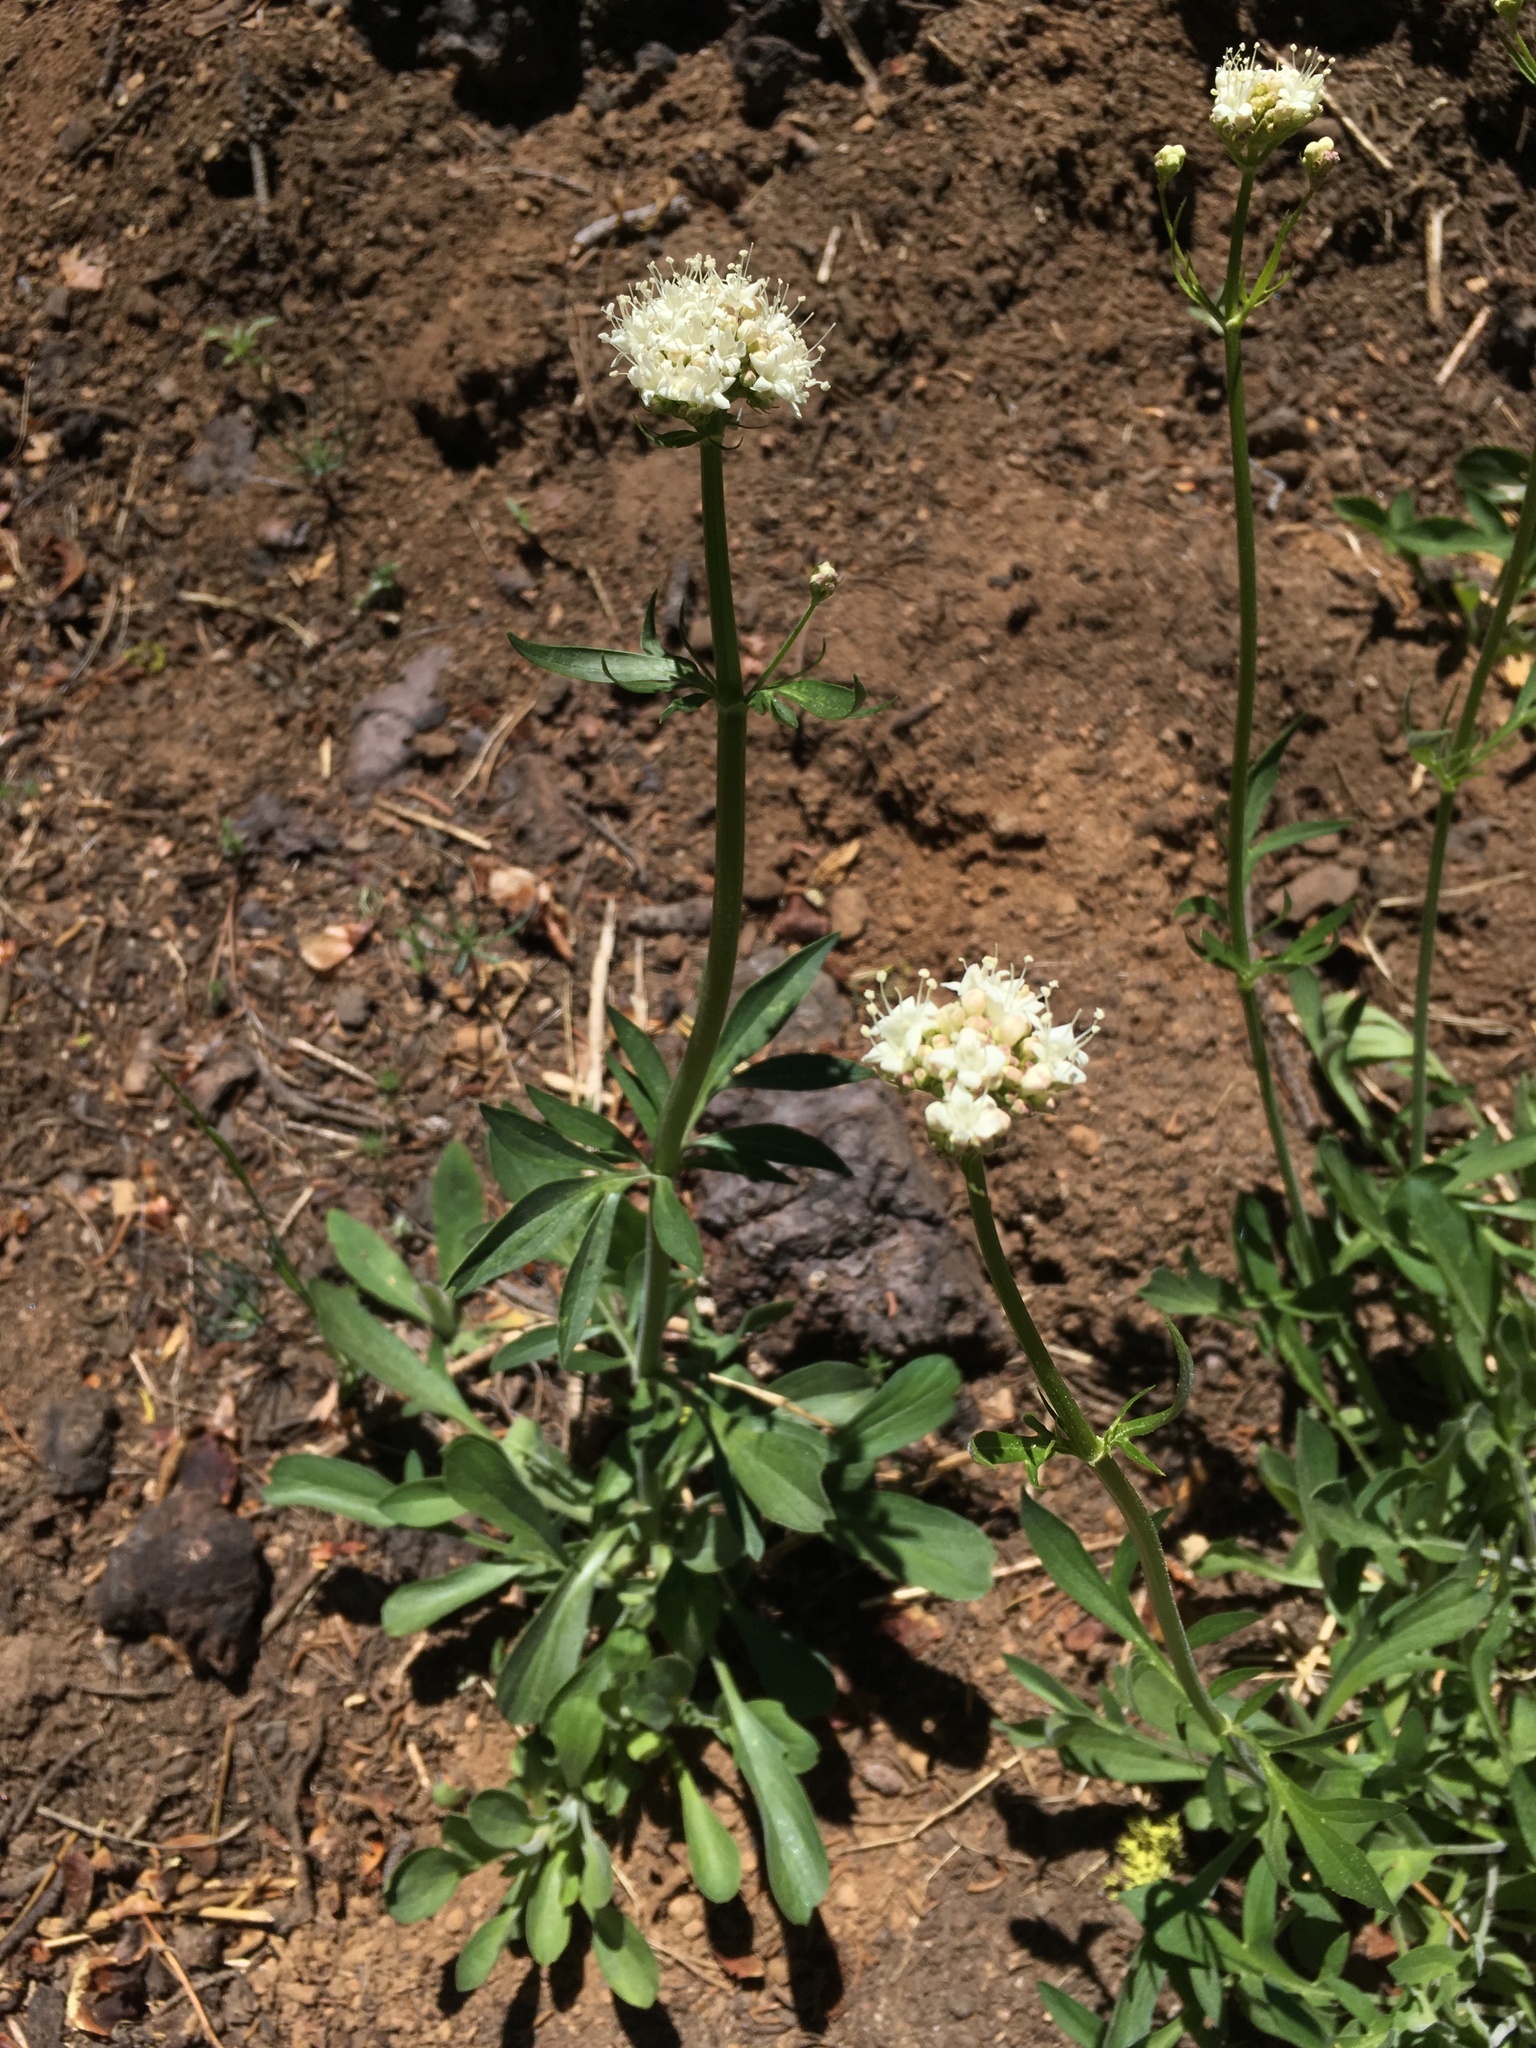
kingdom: Plantae
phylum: Tracheophyta
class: Magnoliopsida
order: Dipsacales
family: Caprifoliaceae
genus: Valeriana
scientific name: Valeriana californica
